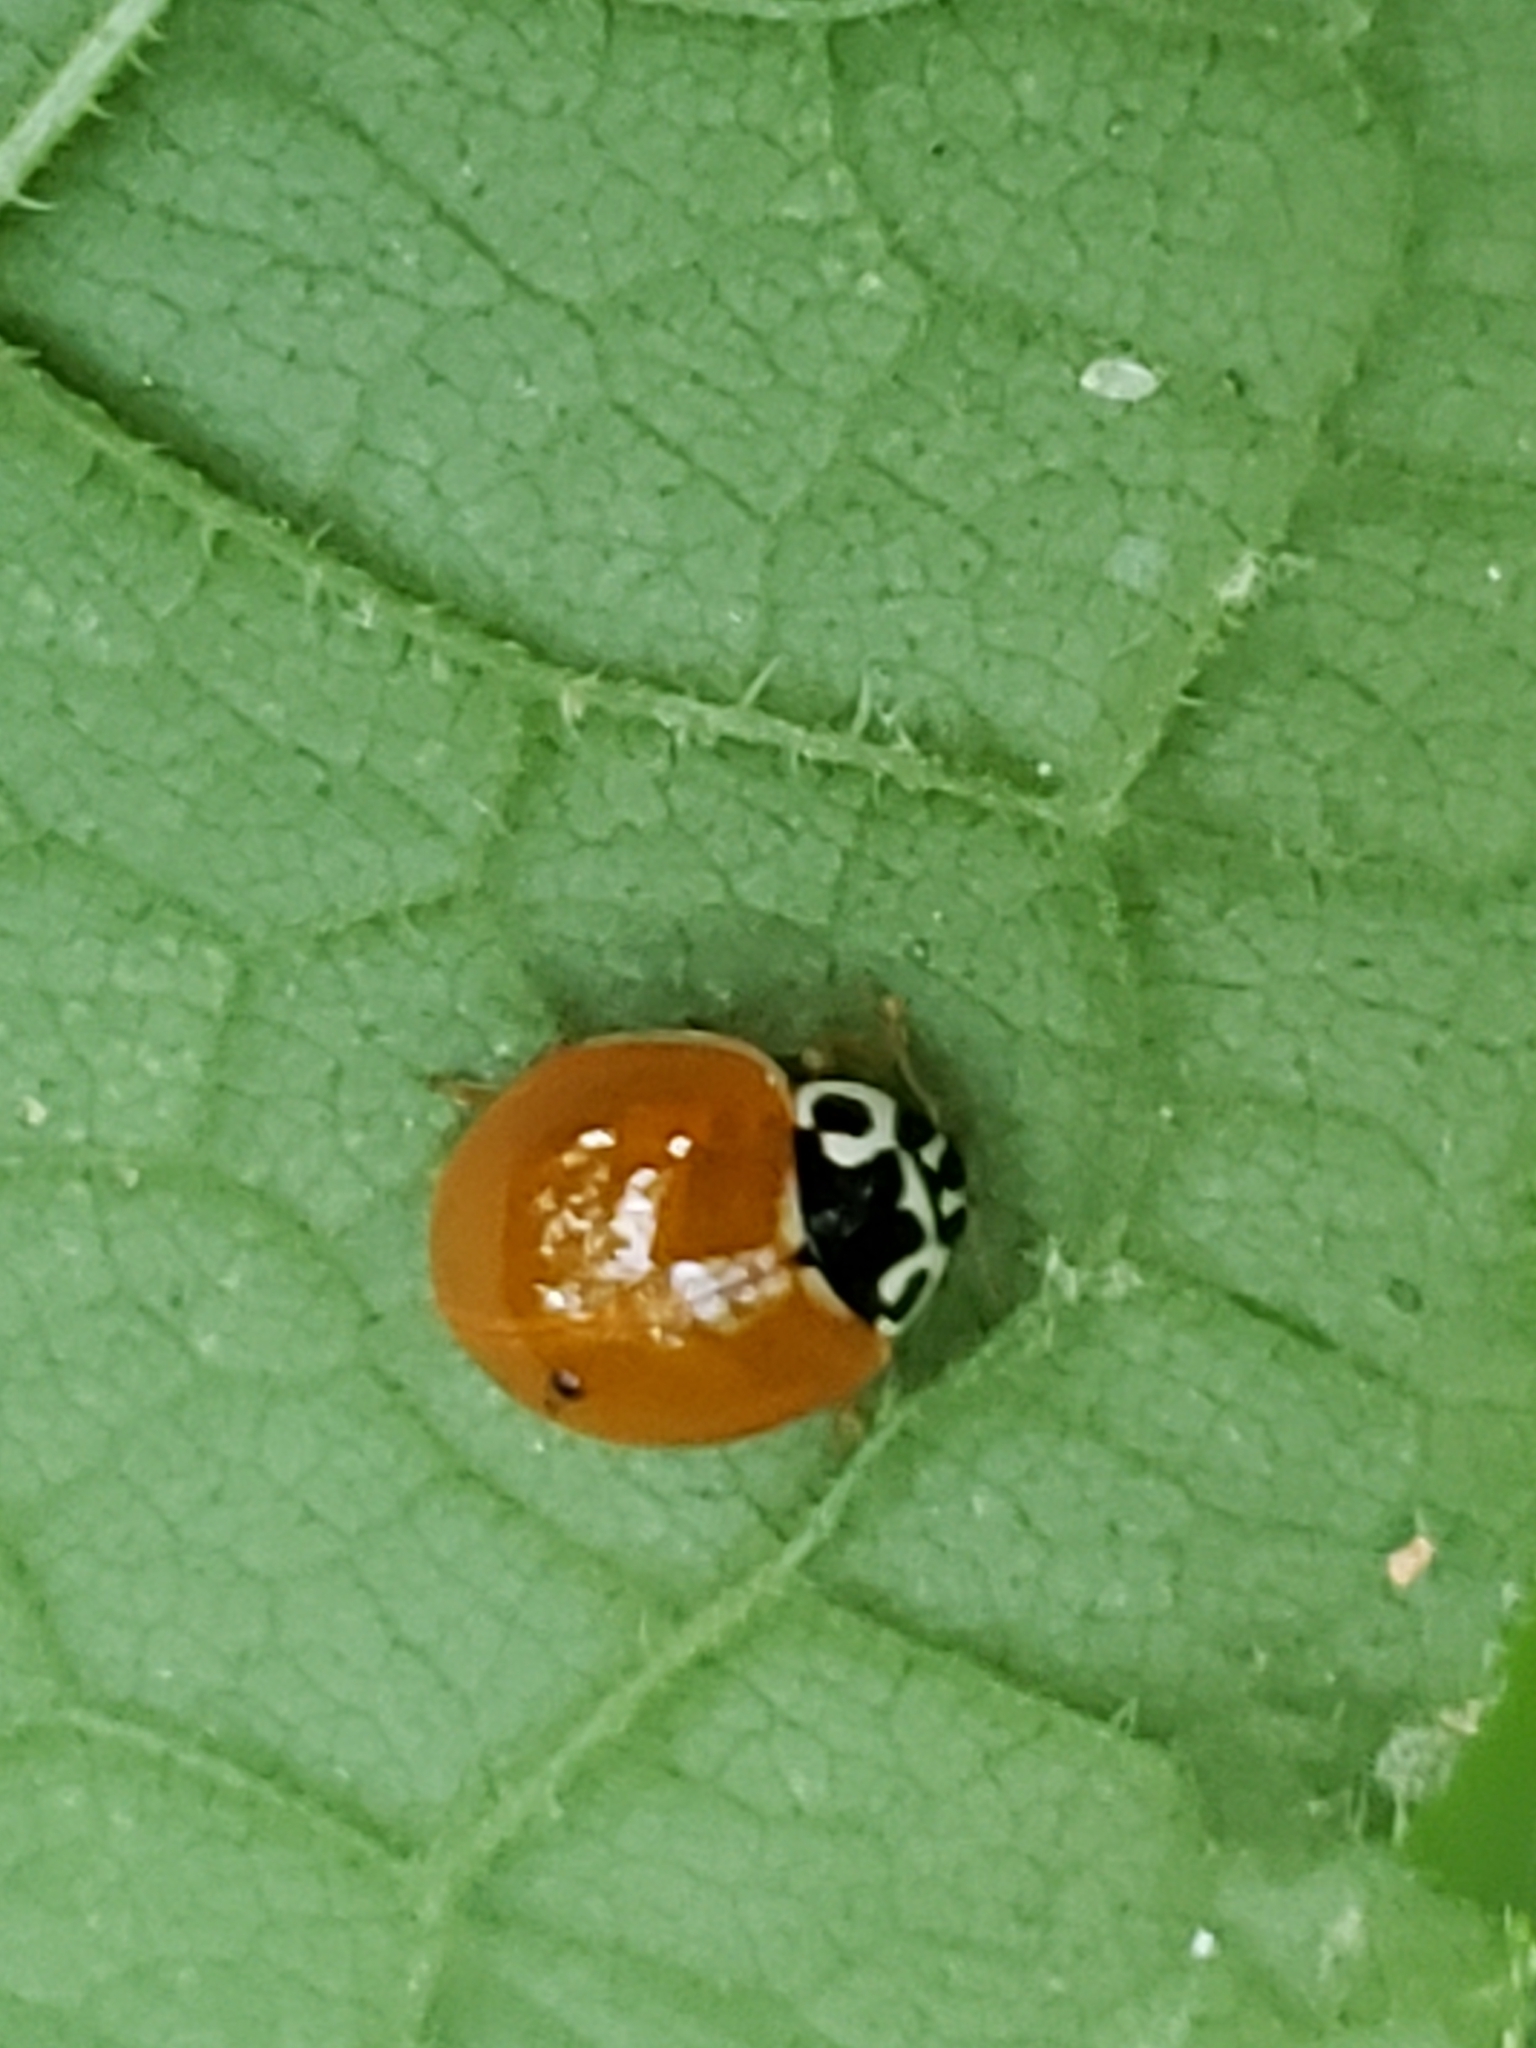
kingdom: Animalia
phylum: Arthropoda
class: Insecta
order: Coleoptera
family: Coccinellidae
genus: Cycloneda
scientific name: Cycloneda munda
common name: Polished lady beetle
